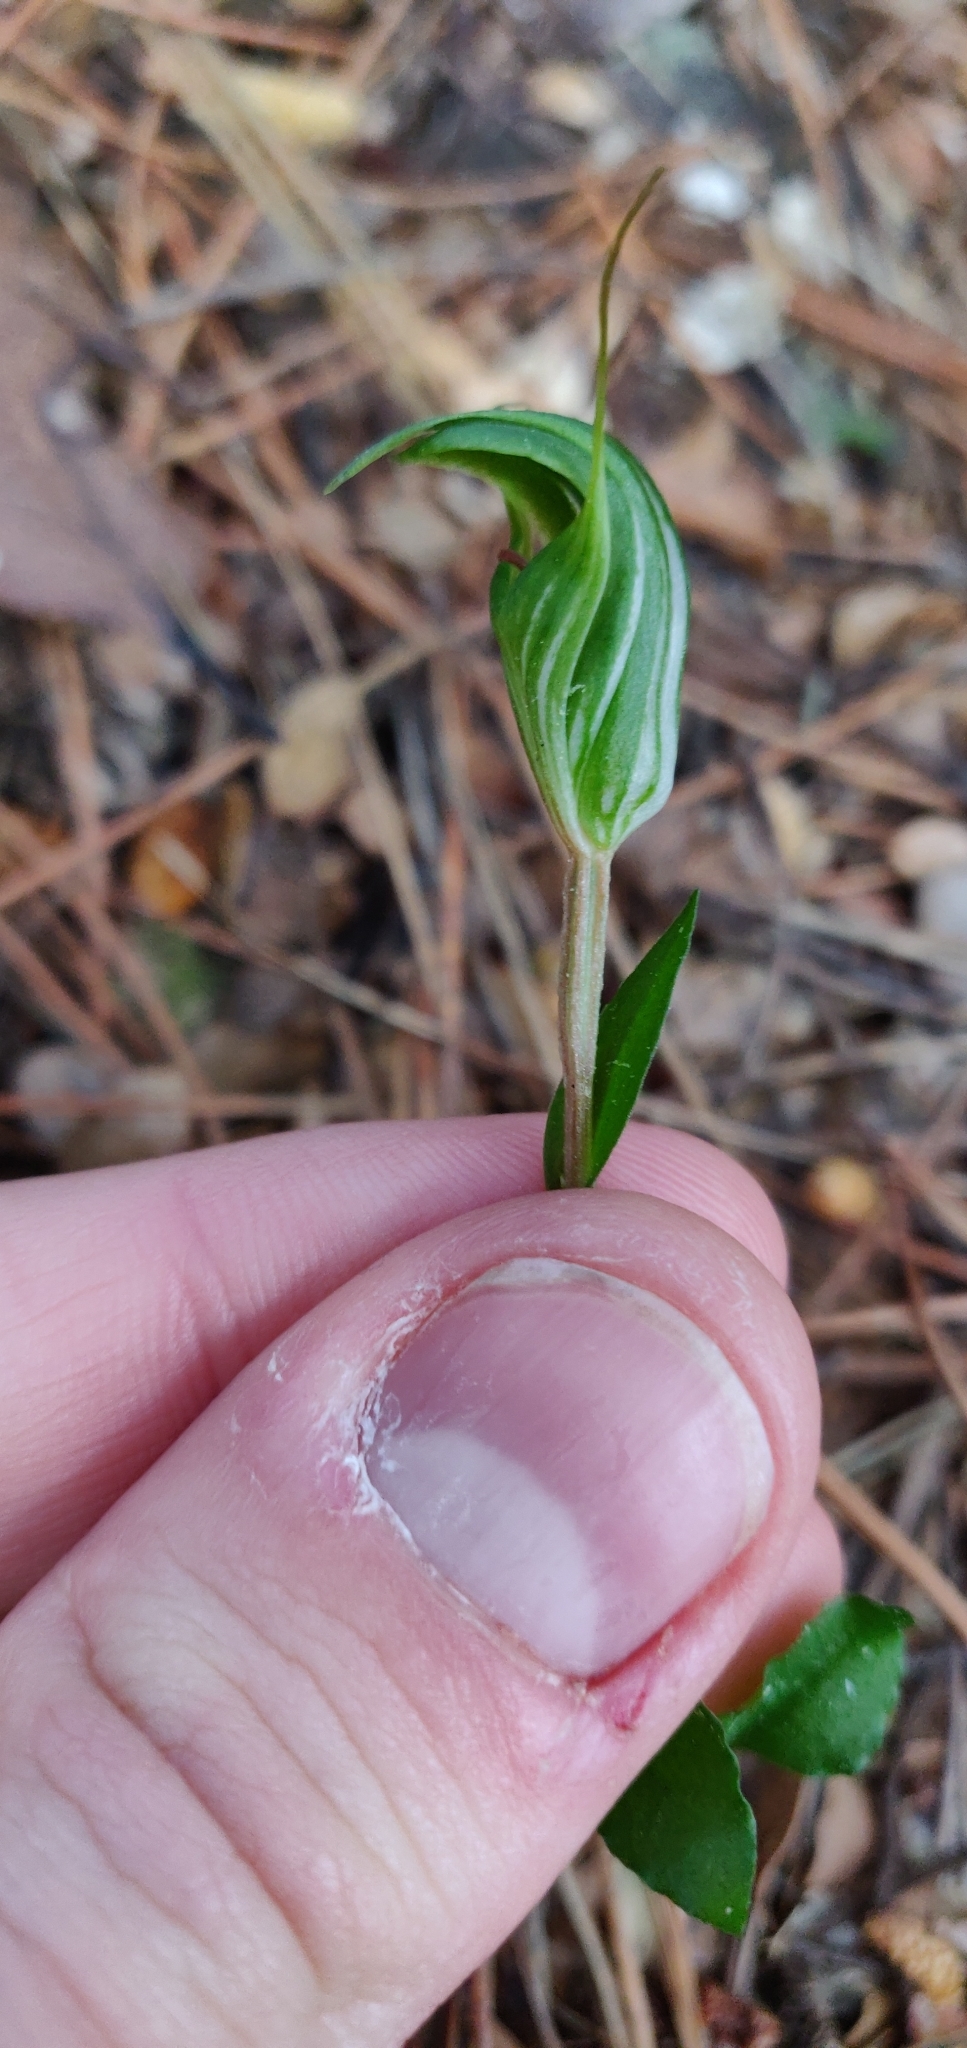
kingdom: Plantae
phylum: Tracheophyta
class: Liliopsida
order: Asparagales
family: Orchidaceae
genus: Pterostylis
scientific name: Pterostylis alobula
